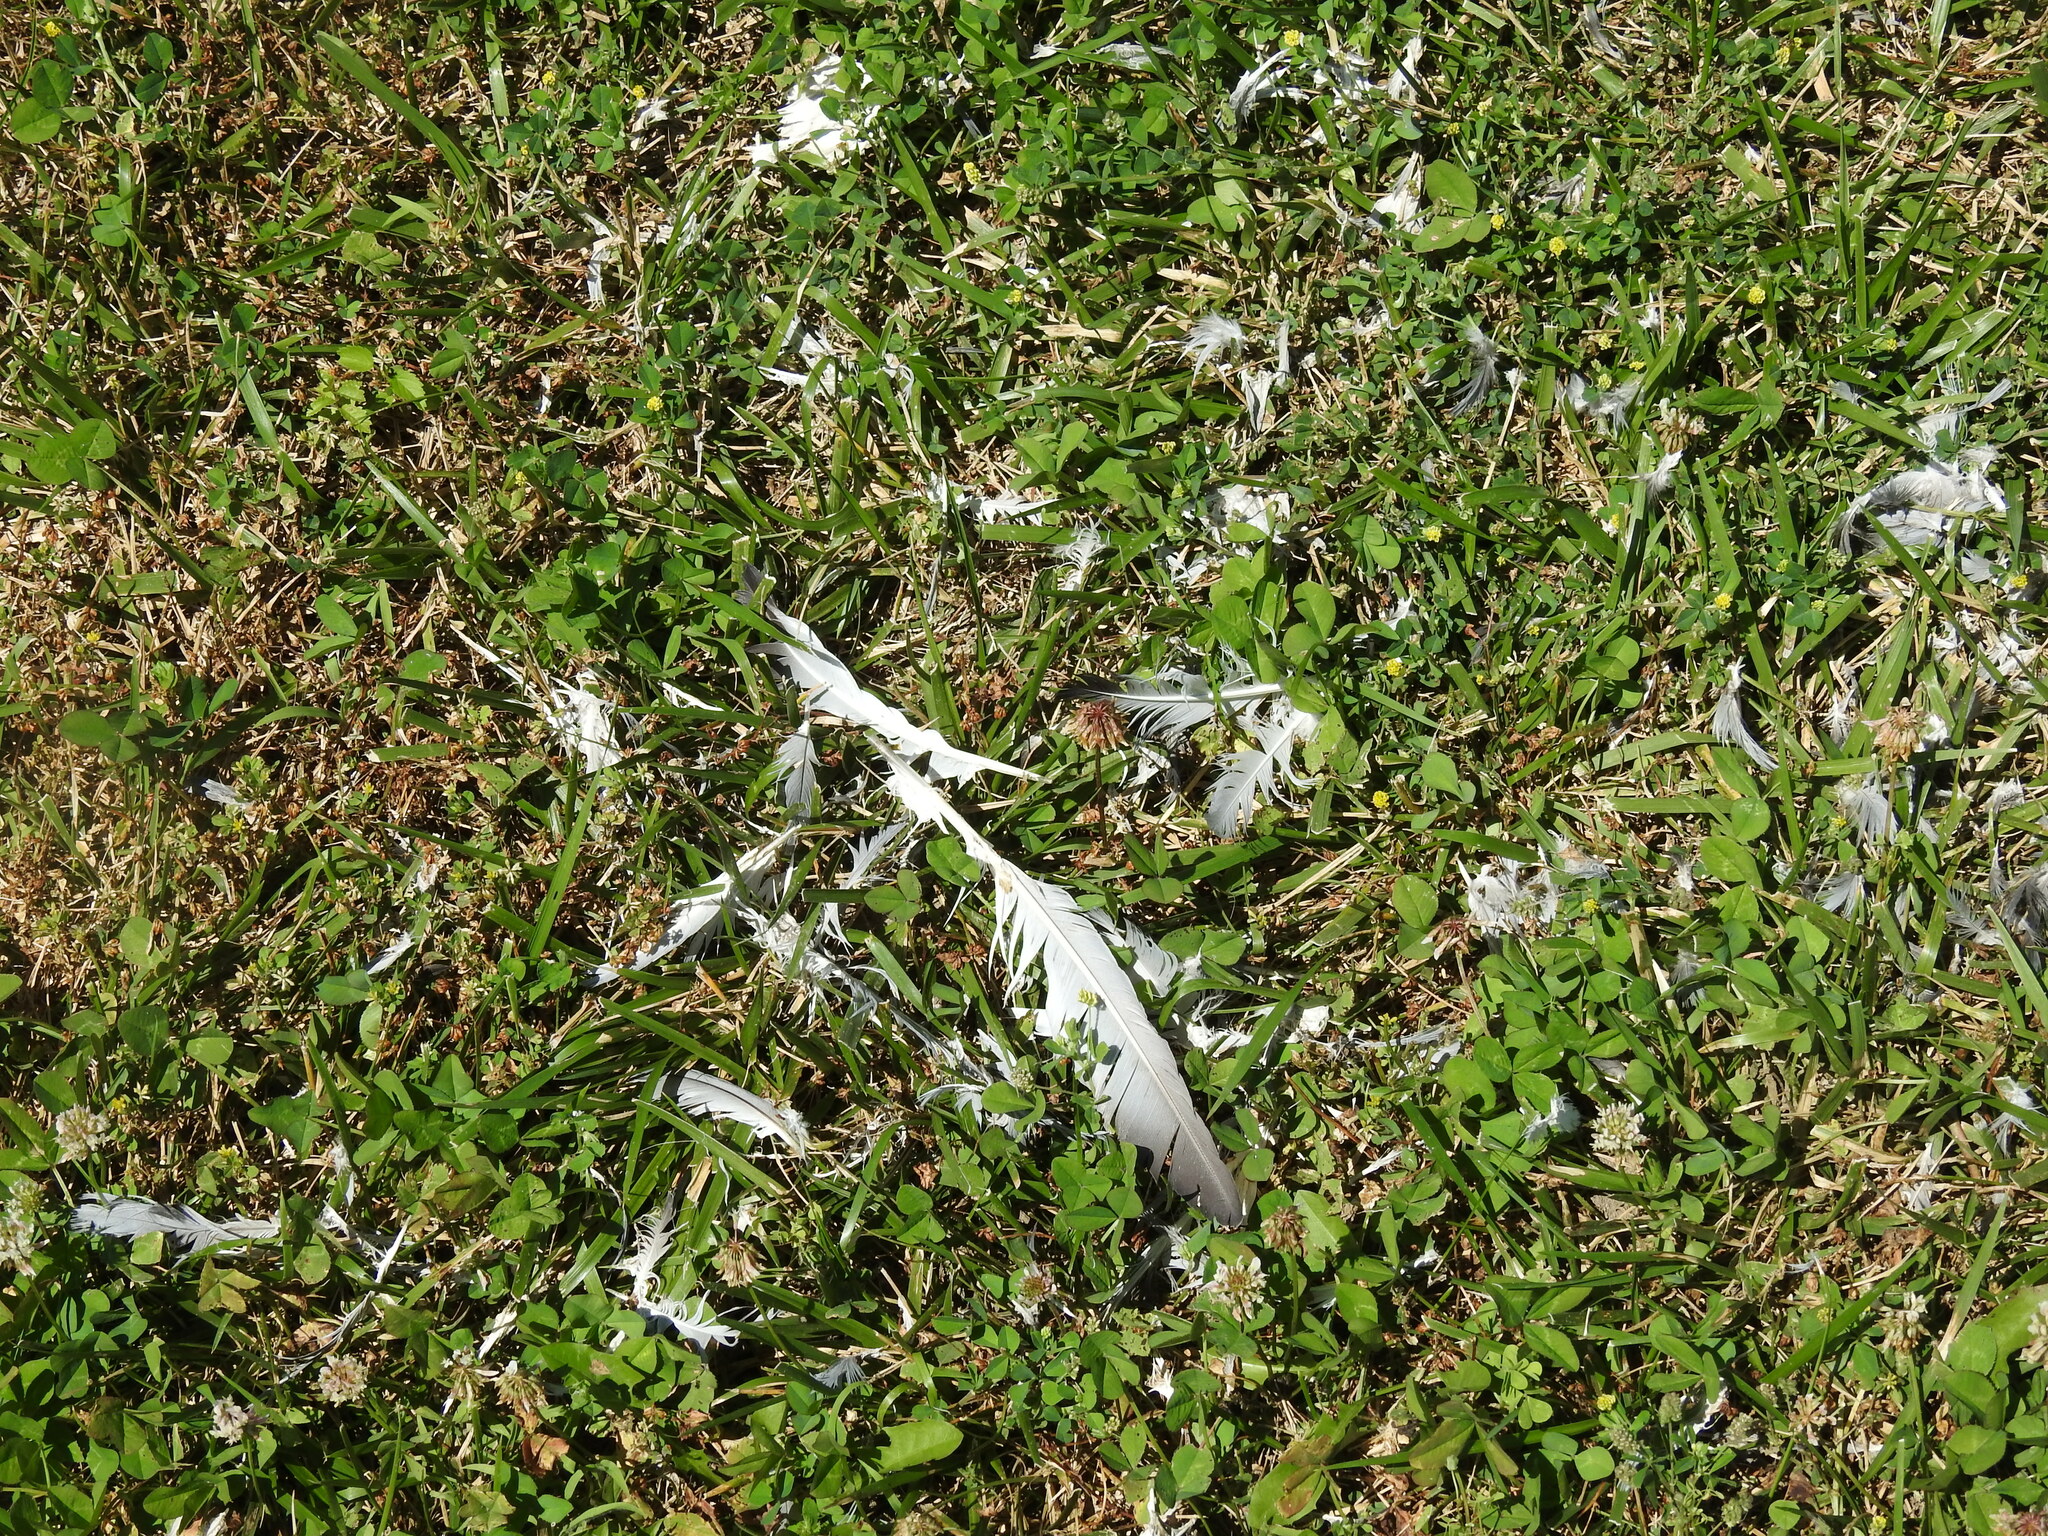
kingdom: Animalia
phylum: Chordata
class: Aves
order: Columbiformes
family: Columbidae
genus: Columba
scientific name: Columba livia
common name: Rock pigeon
